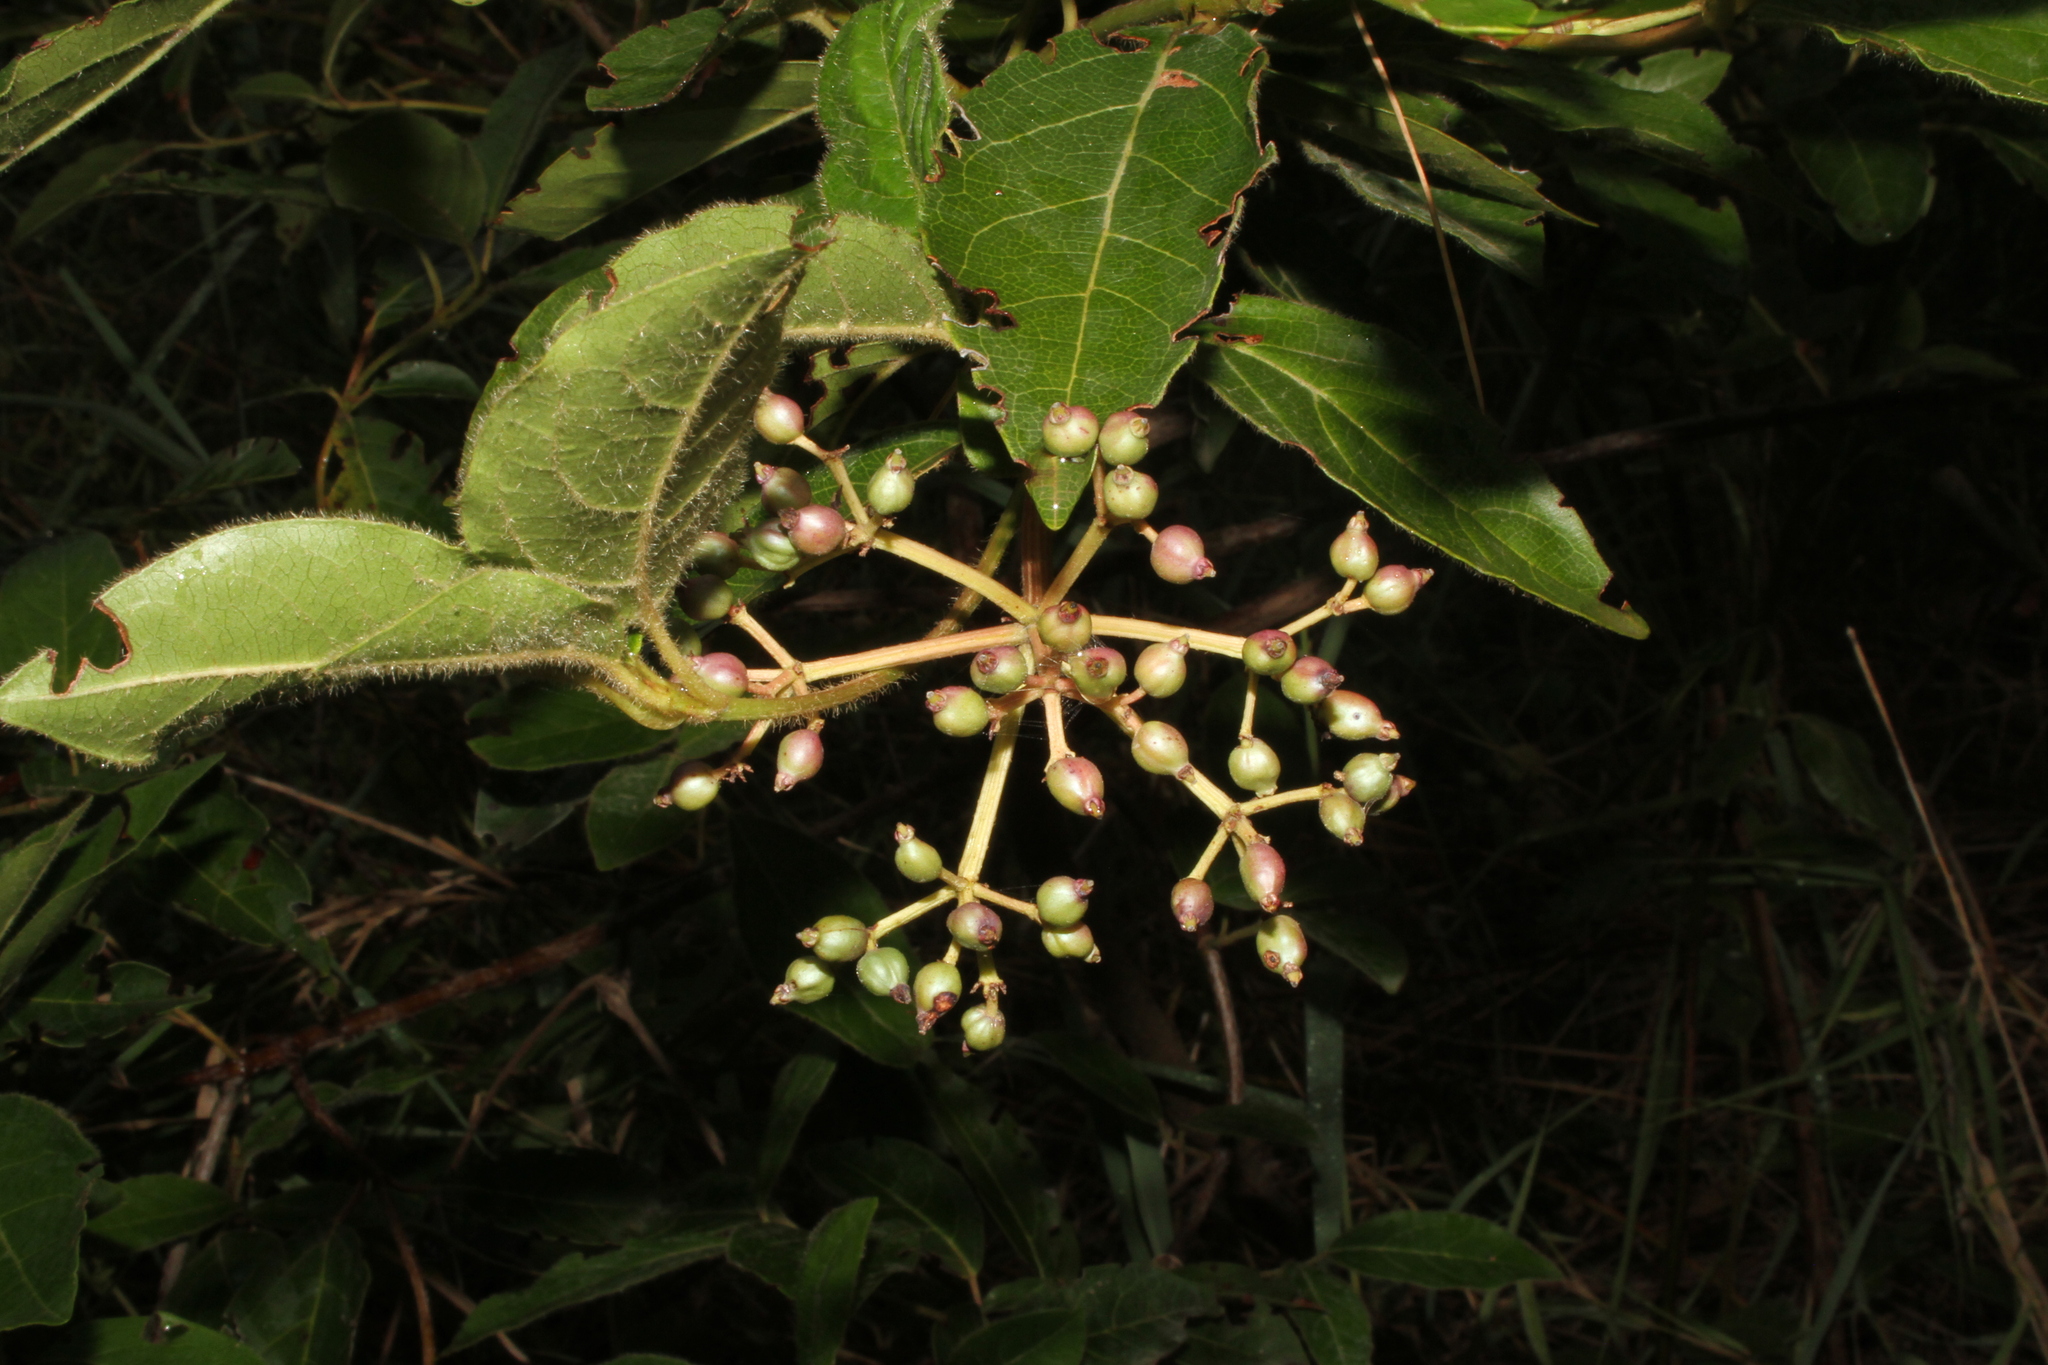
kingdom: Plantae
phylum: Tracheophyta
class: Magnoliopsida
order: Dipsacales
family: Viburnaceae
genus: Viburnum
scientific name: Viburnum tinus
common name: Laurustinus
